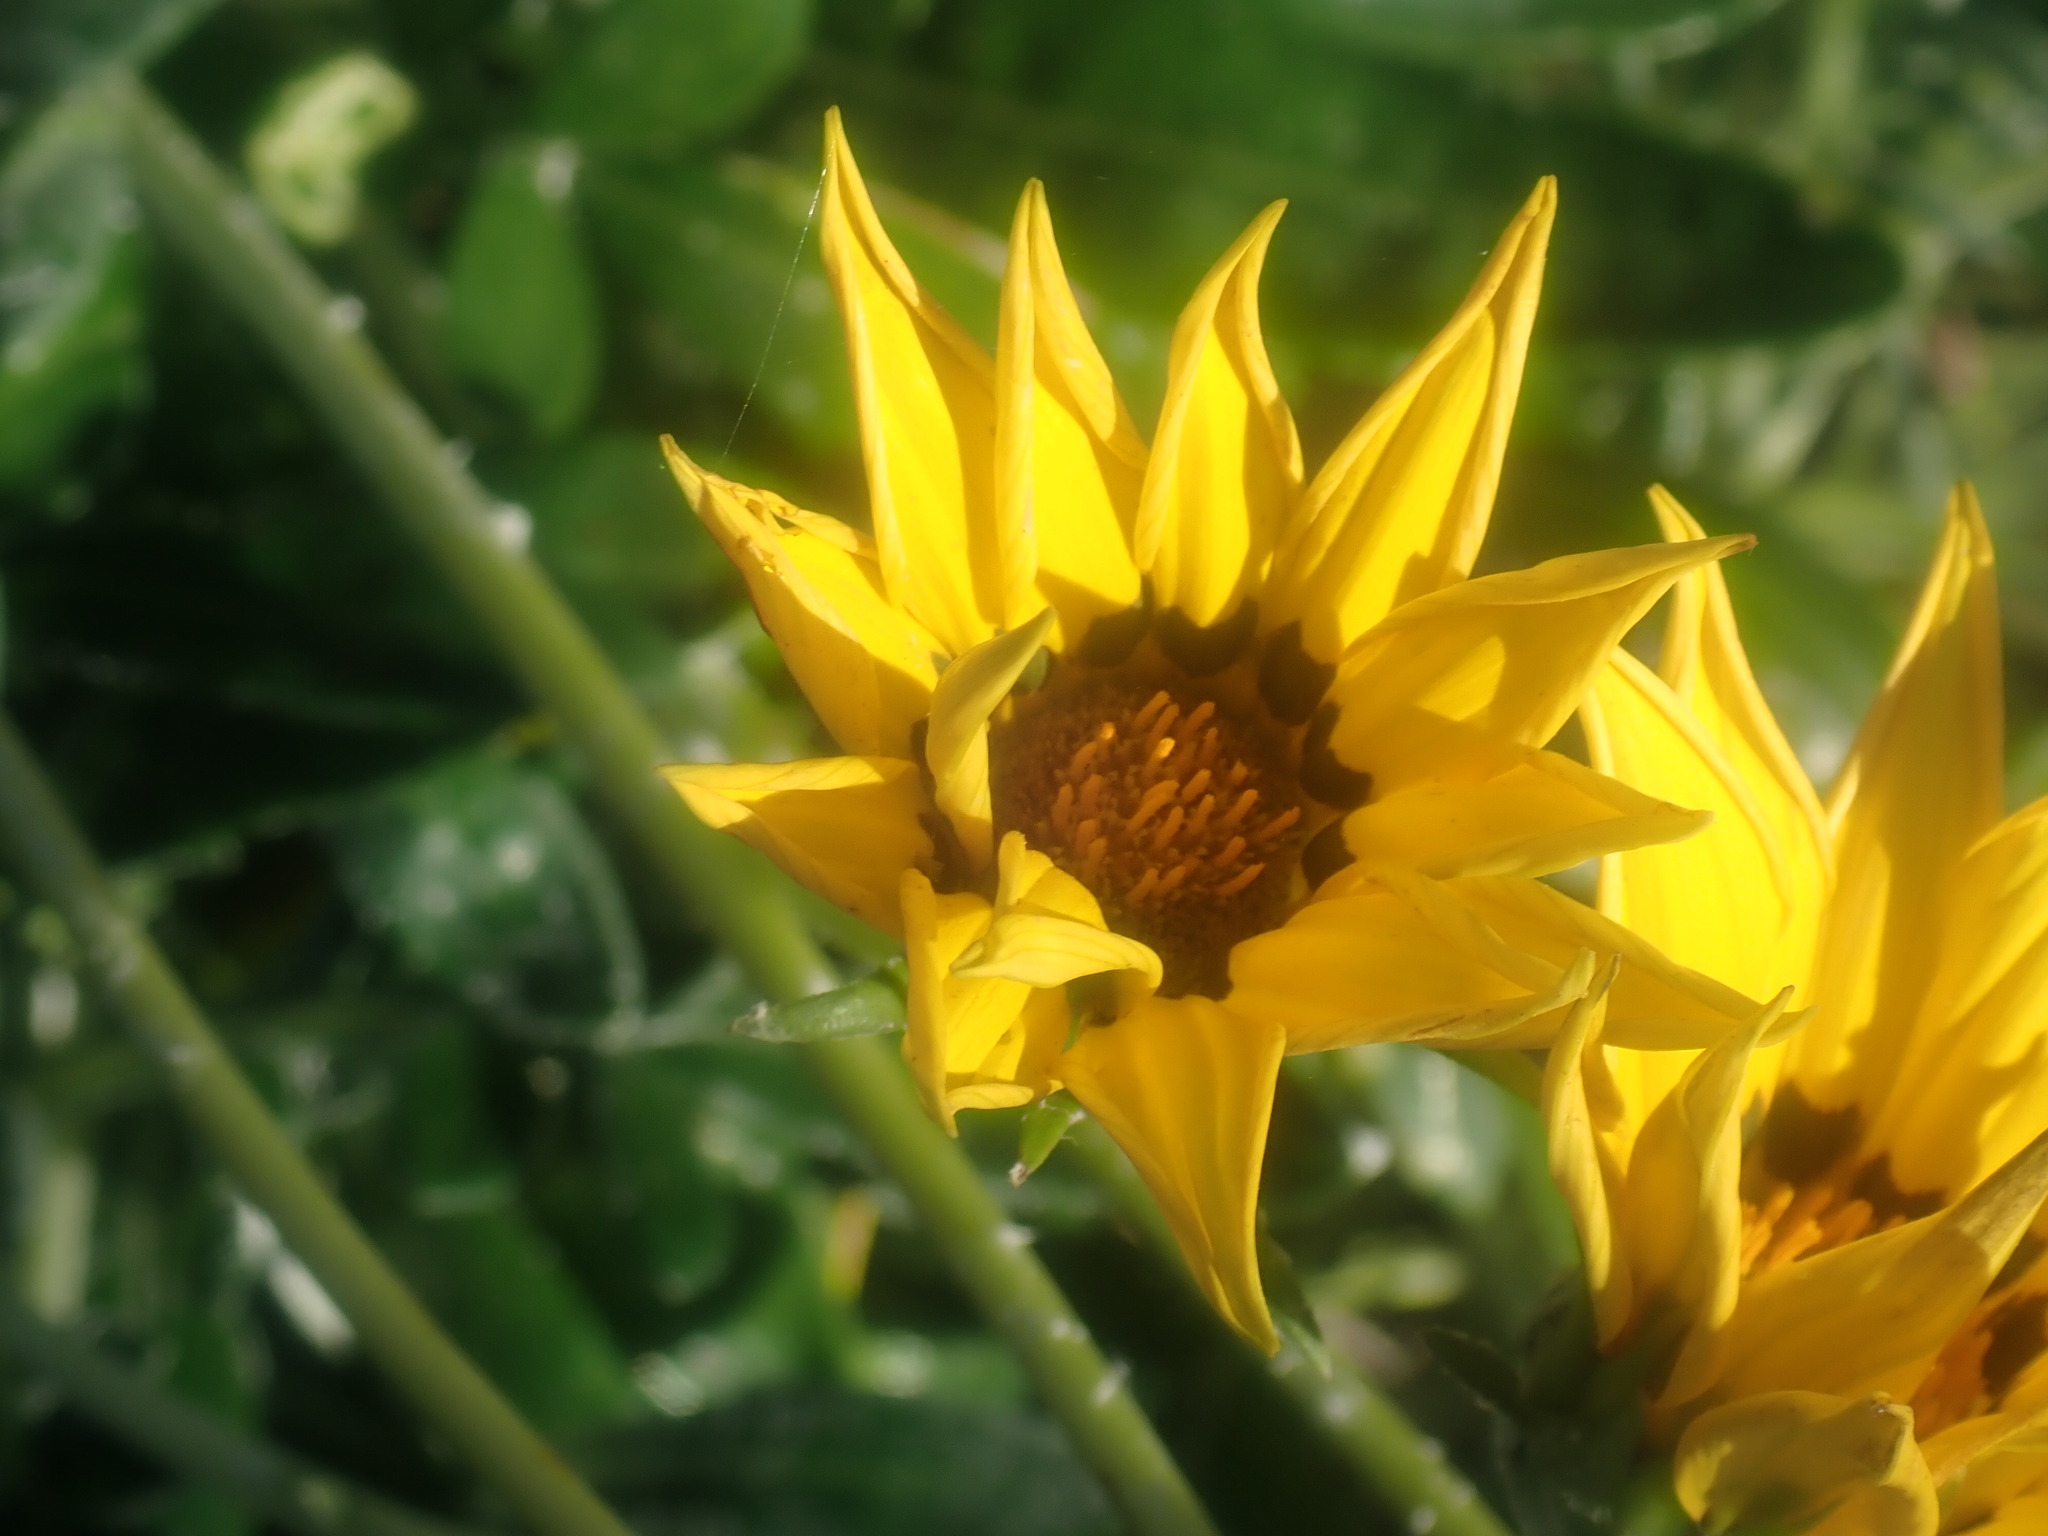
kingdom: Plantae
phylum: Tracheophyta
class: Magnoliopsida
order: Asterales
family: Asteraceae
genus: Gazania
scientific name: Gazania splendens
